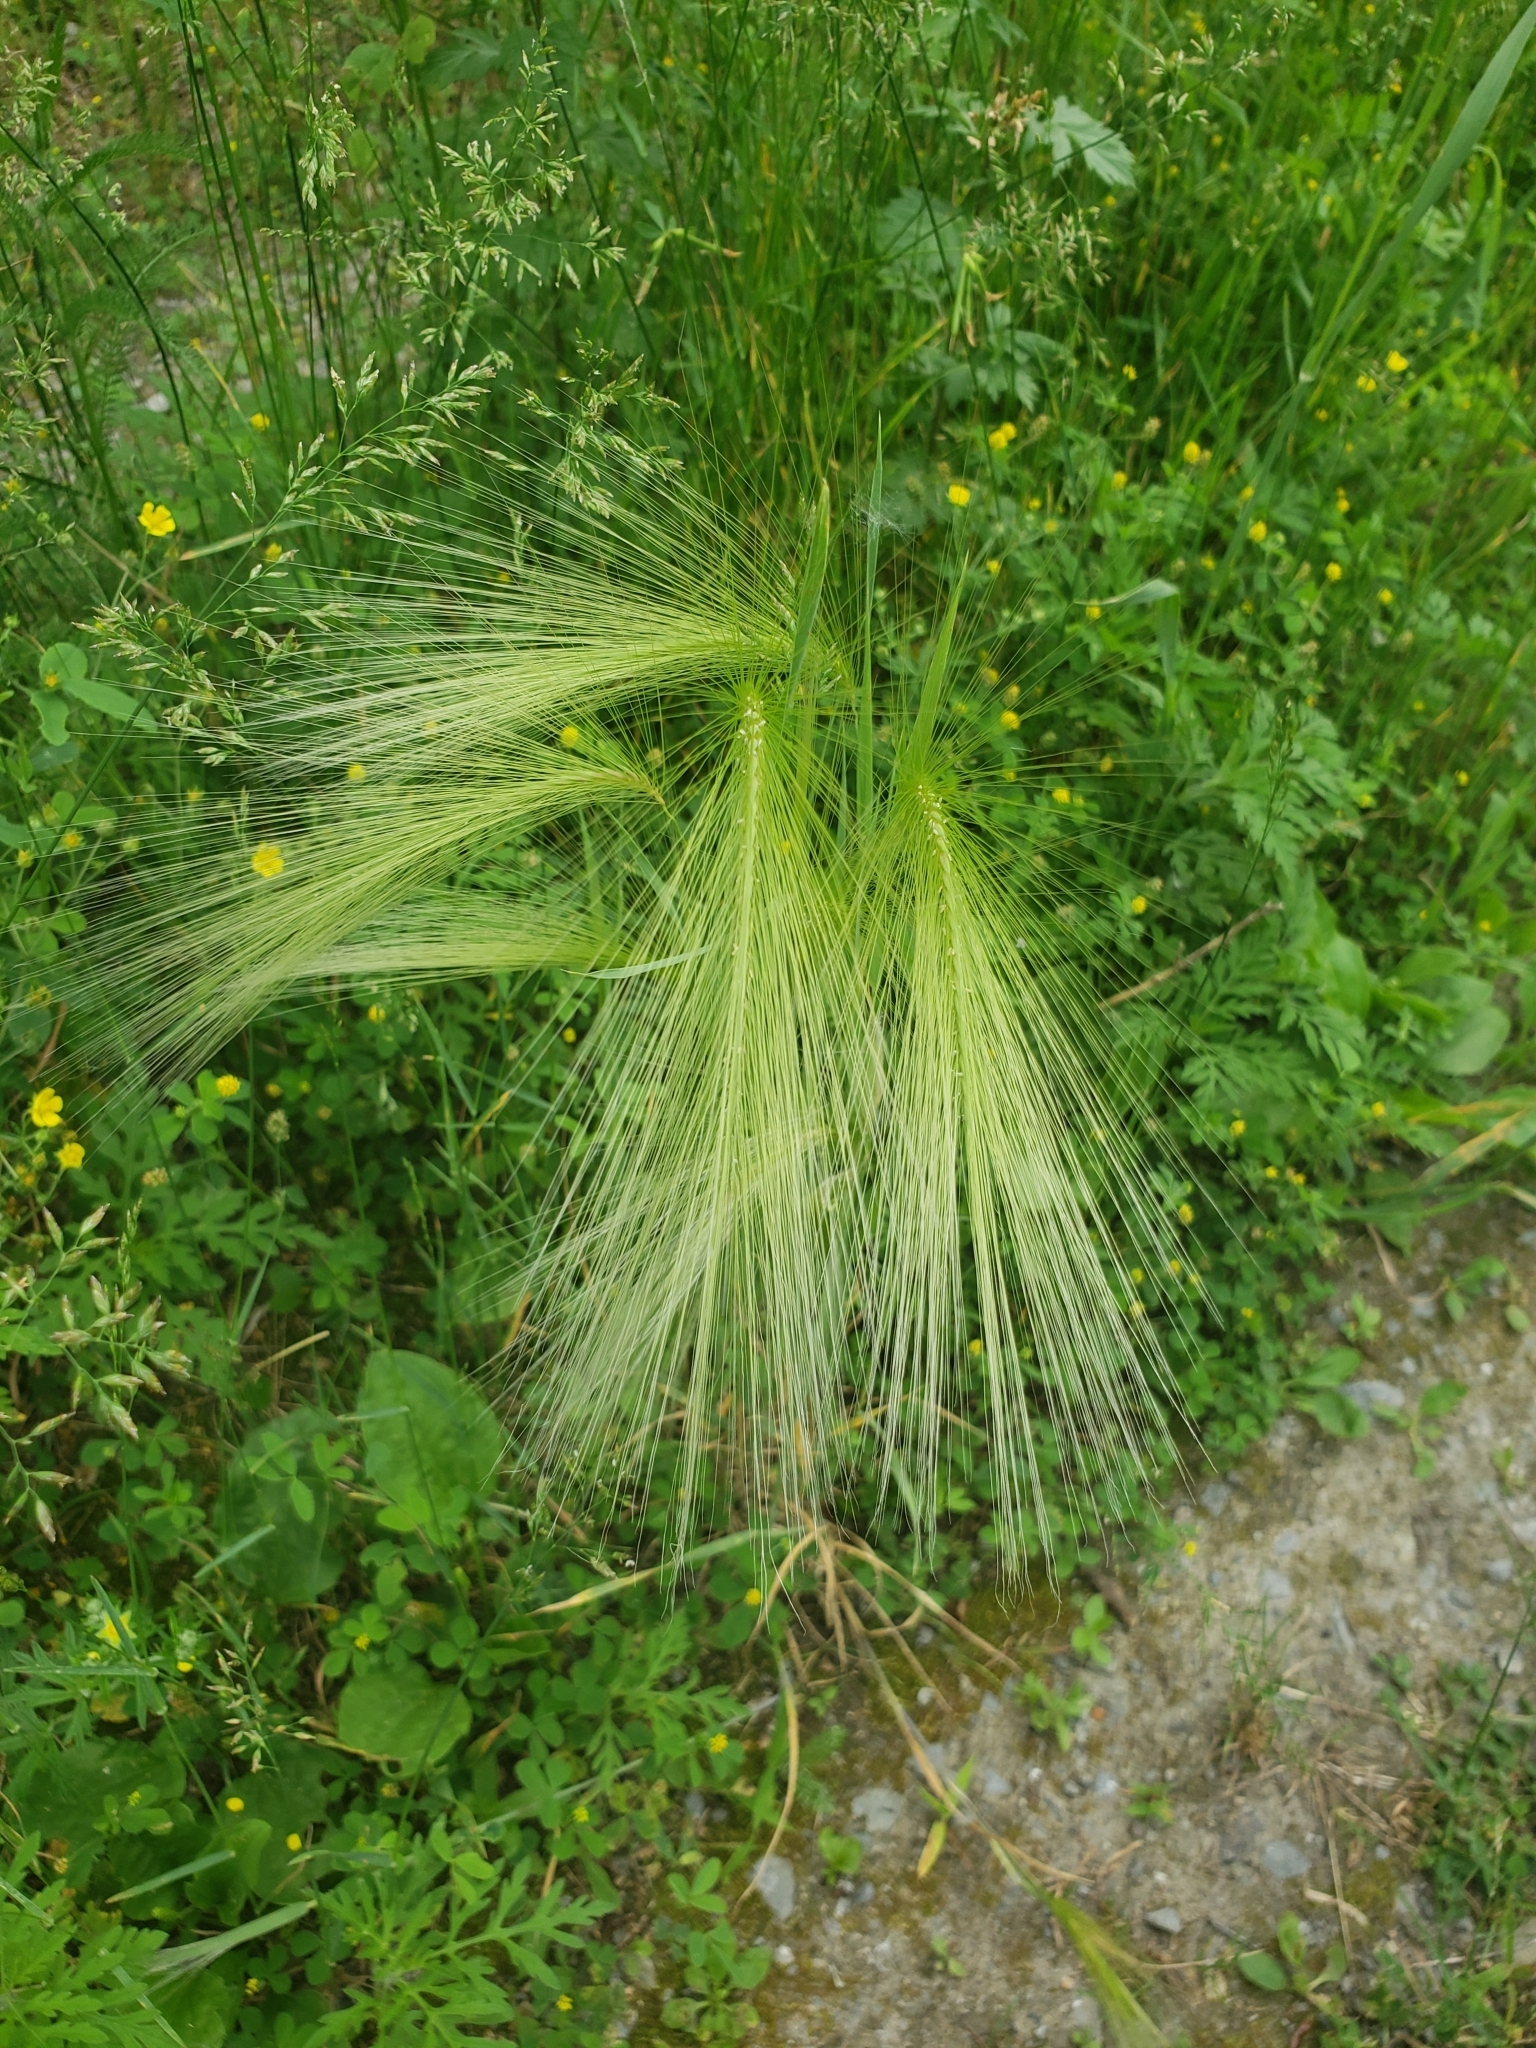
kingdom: Plantae
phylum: Tracheophyta
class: Liliopsida
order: Poales
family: Poaceae
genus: Hordeum
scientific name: Hordeum jubatum
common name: Foxtail barley
